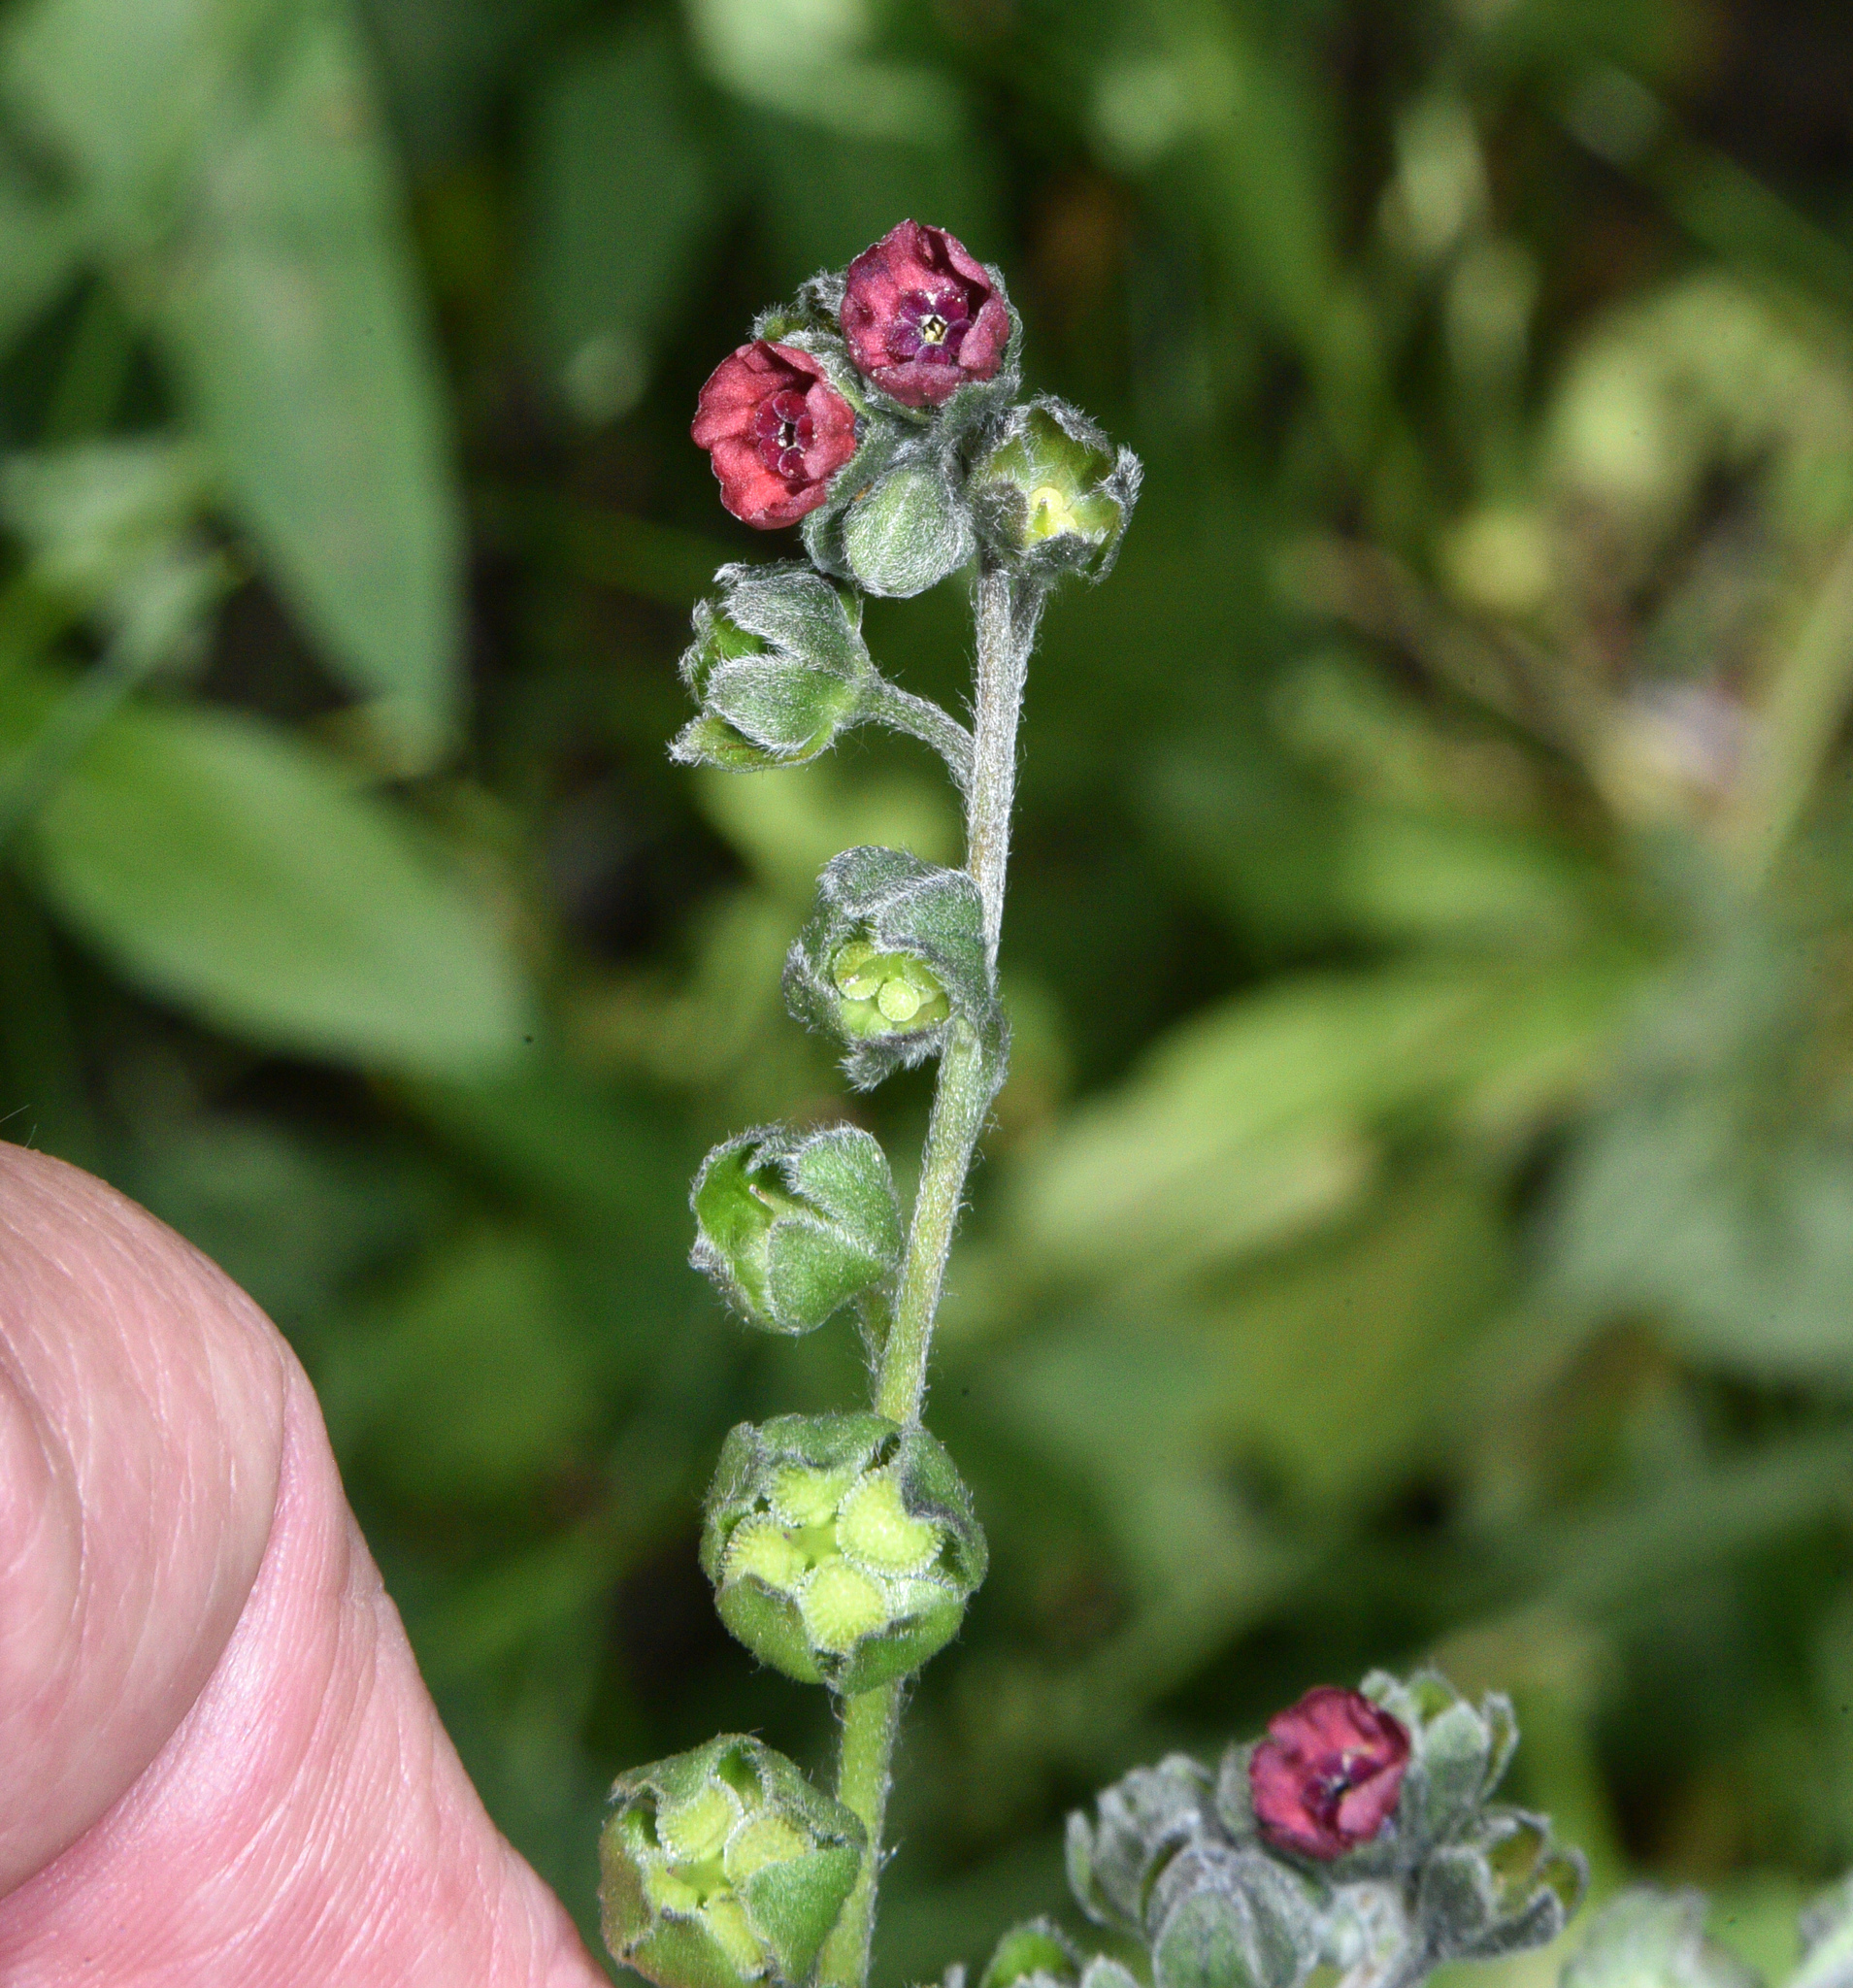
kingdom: Plantae
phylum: Tracheophyta
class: Magnoliopsida
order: Boraginales
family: Boraginaceae
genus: Cynoglossum
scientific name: Cynoglossum officinale
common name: Hound's-tongue
